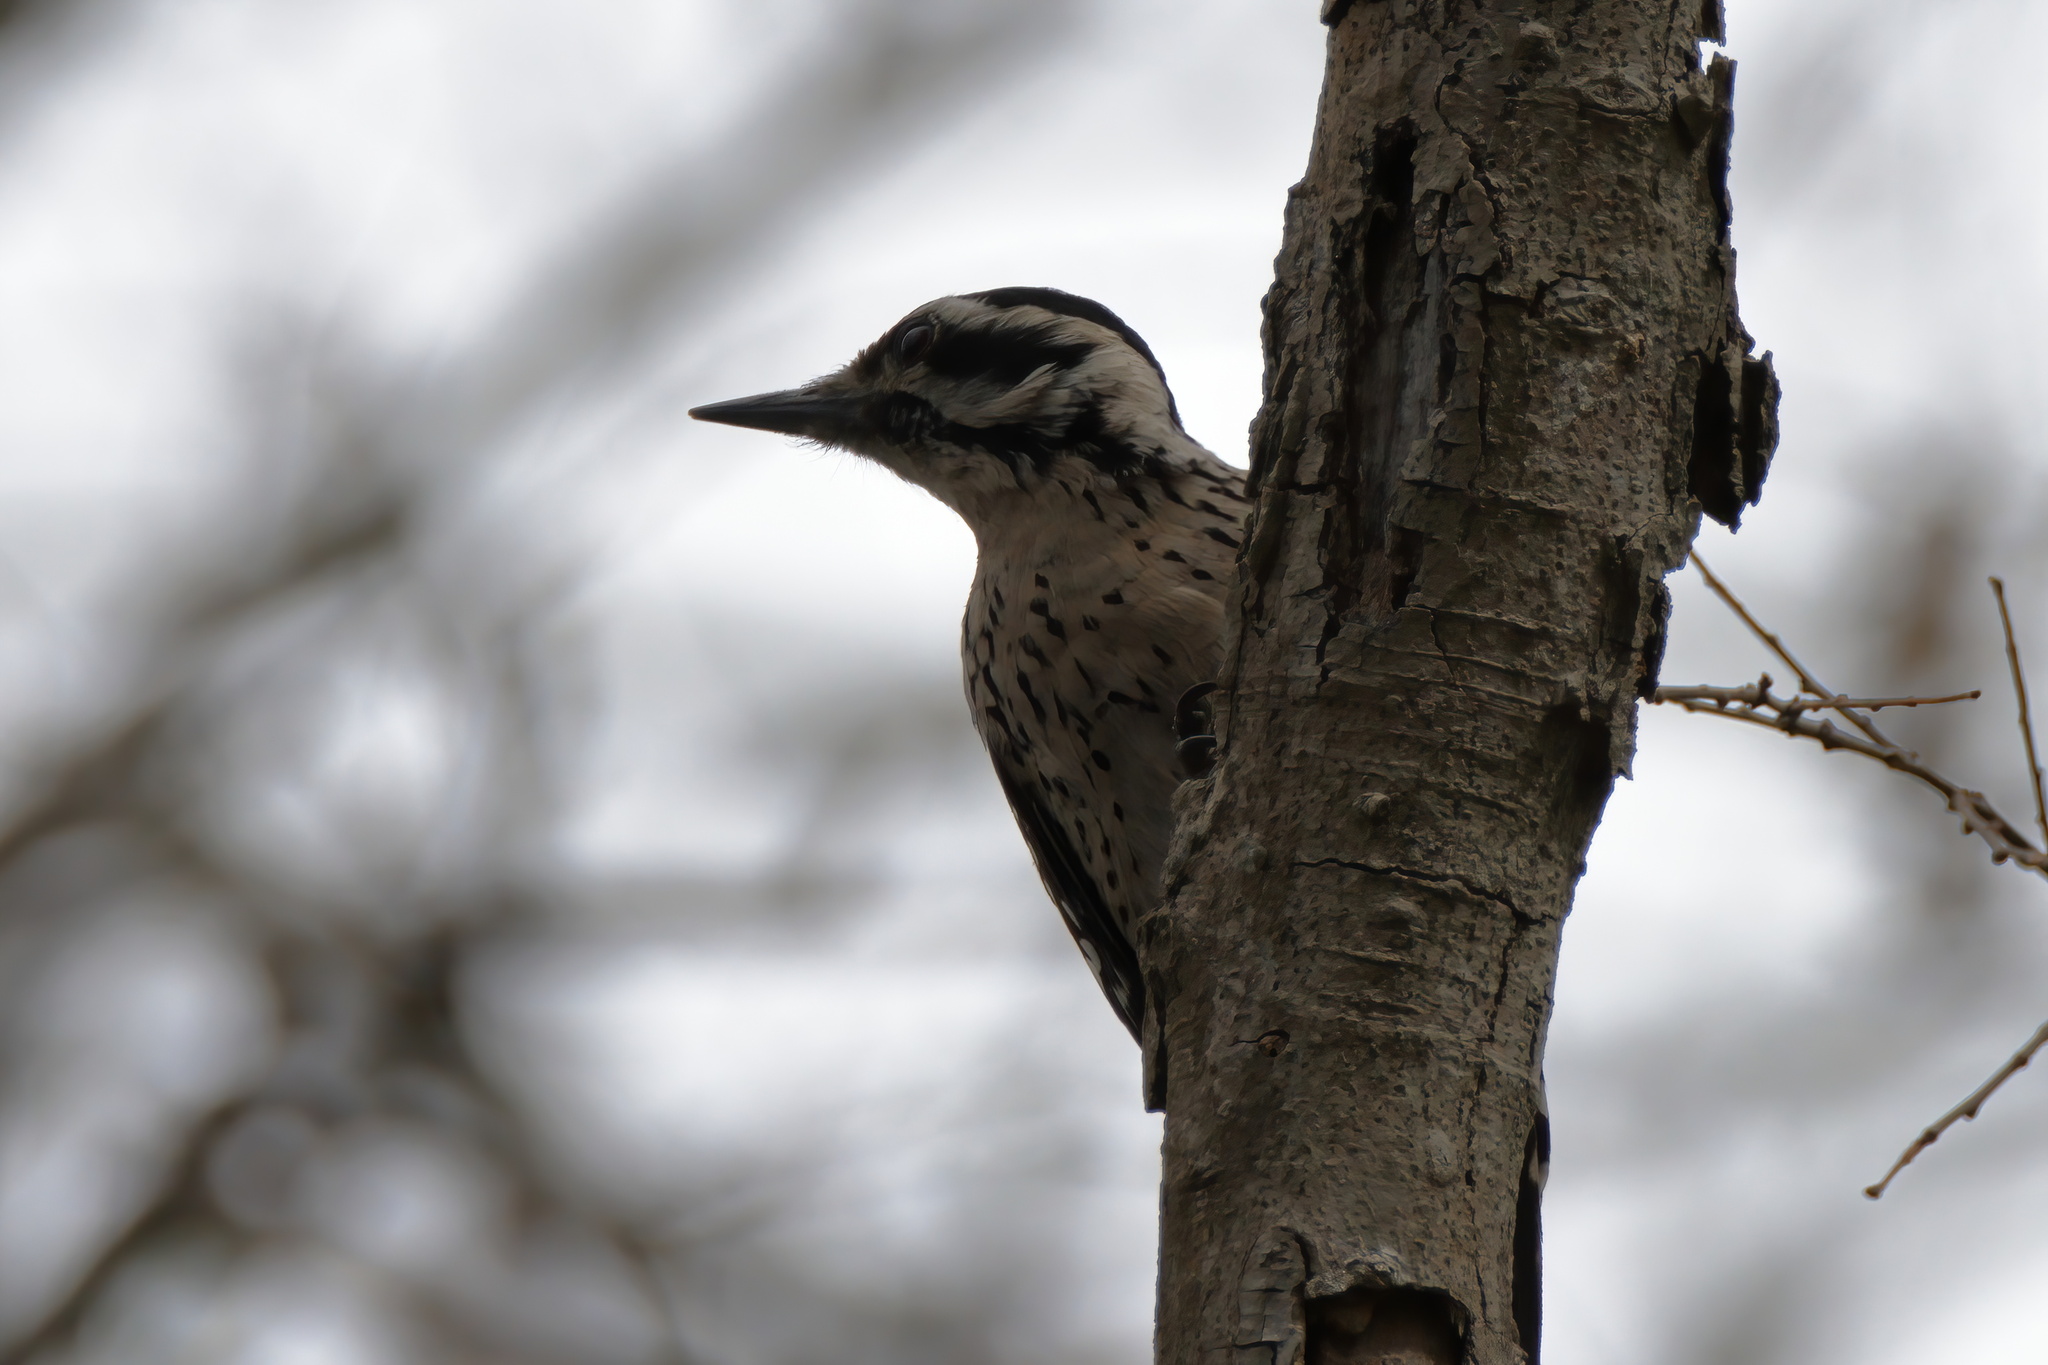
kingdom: Animalia
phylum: Chordata
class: Aves
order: Piciformes
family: Picidae
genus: Dryobates
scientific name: Dryobates scalaris
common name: Ladder-backed woodpecker
